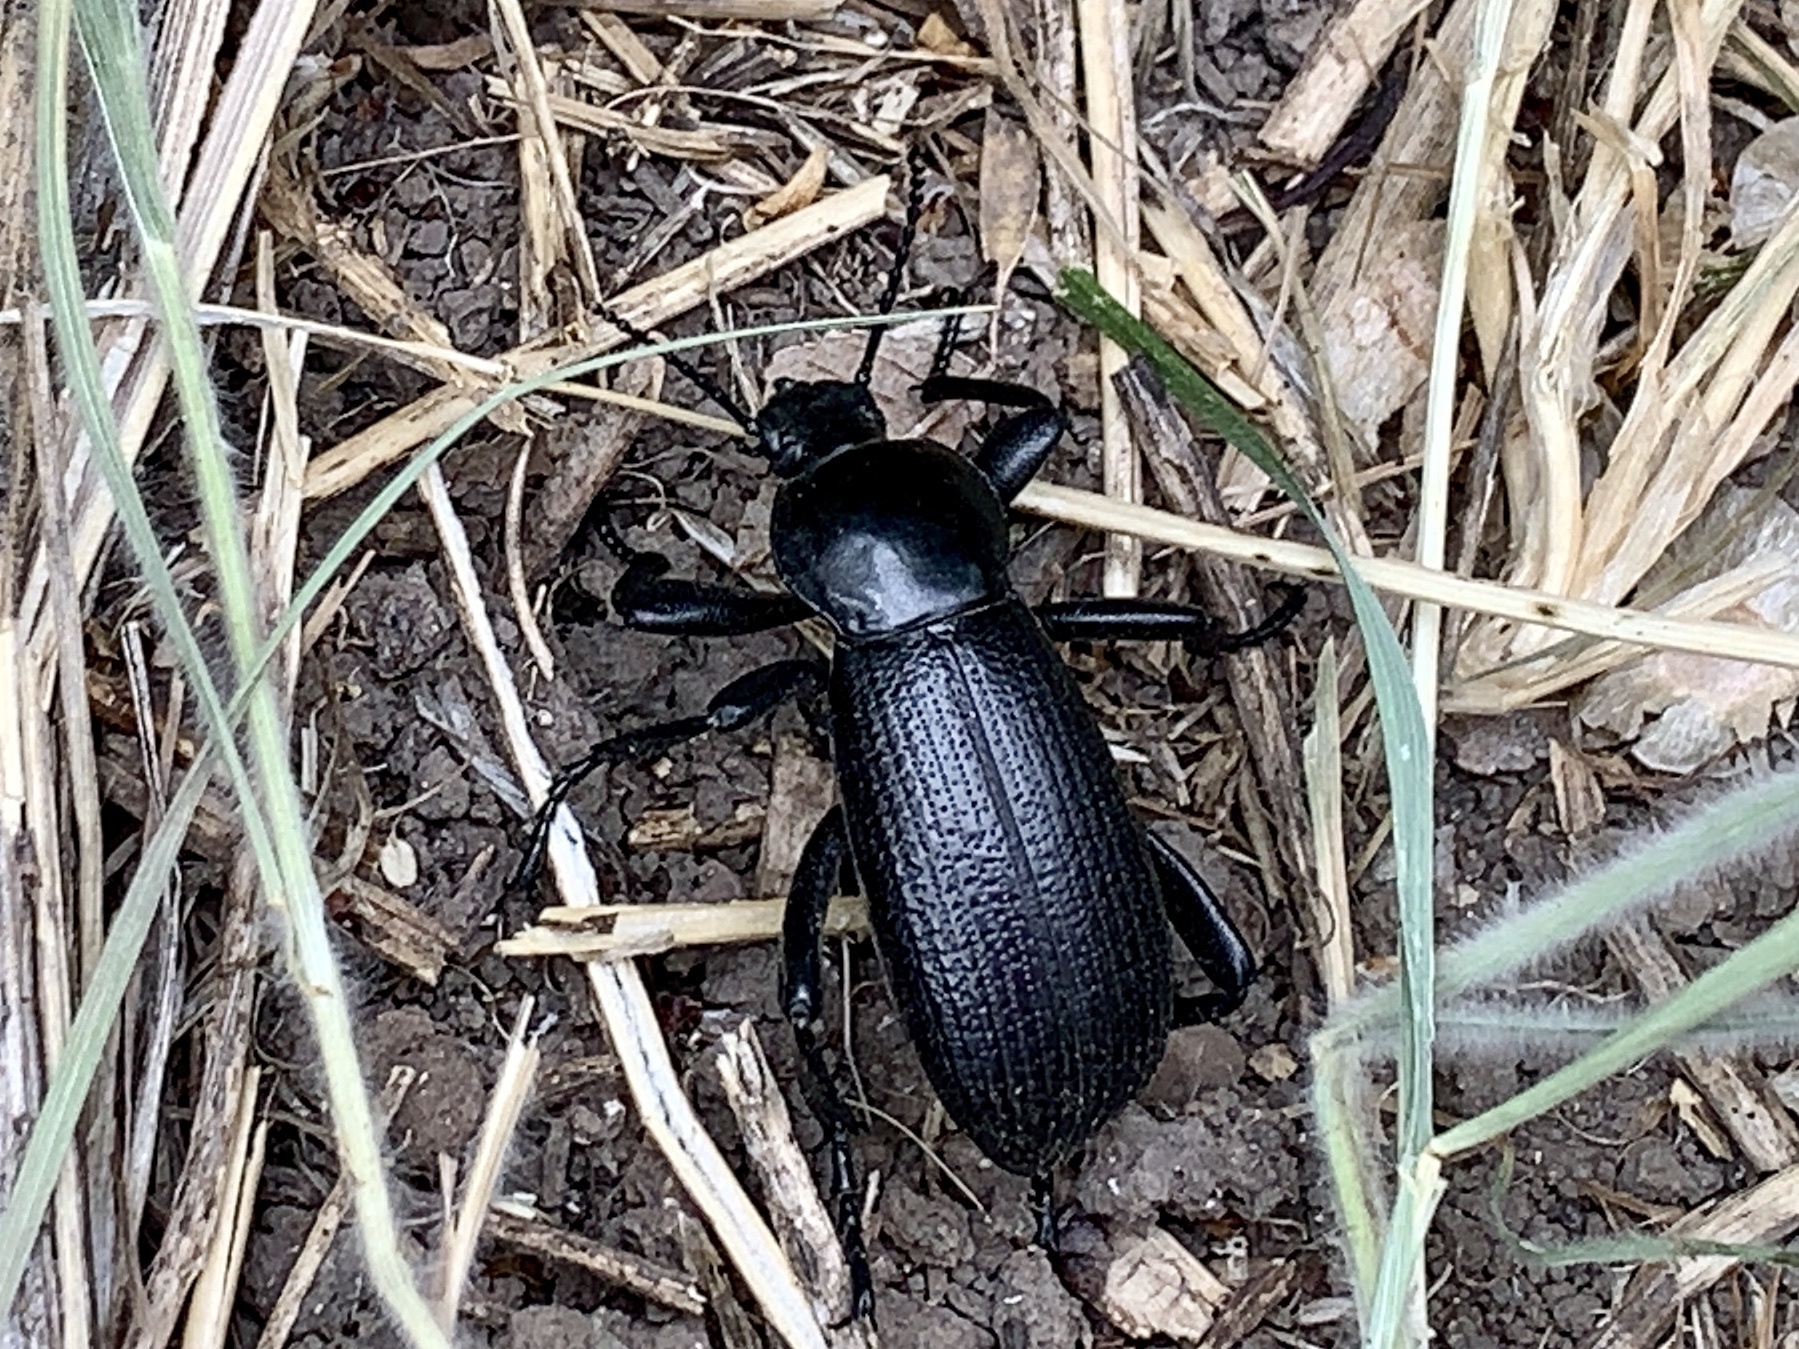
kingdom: Animalia
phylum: Arthropoda
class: Insecta
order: Coleoptera
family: Tenebrionidae
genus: Eleodes
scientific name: Eleodes obscura
